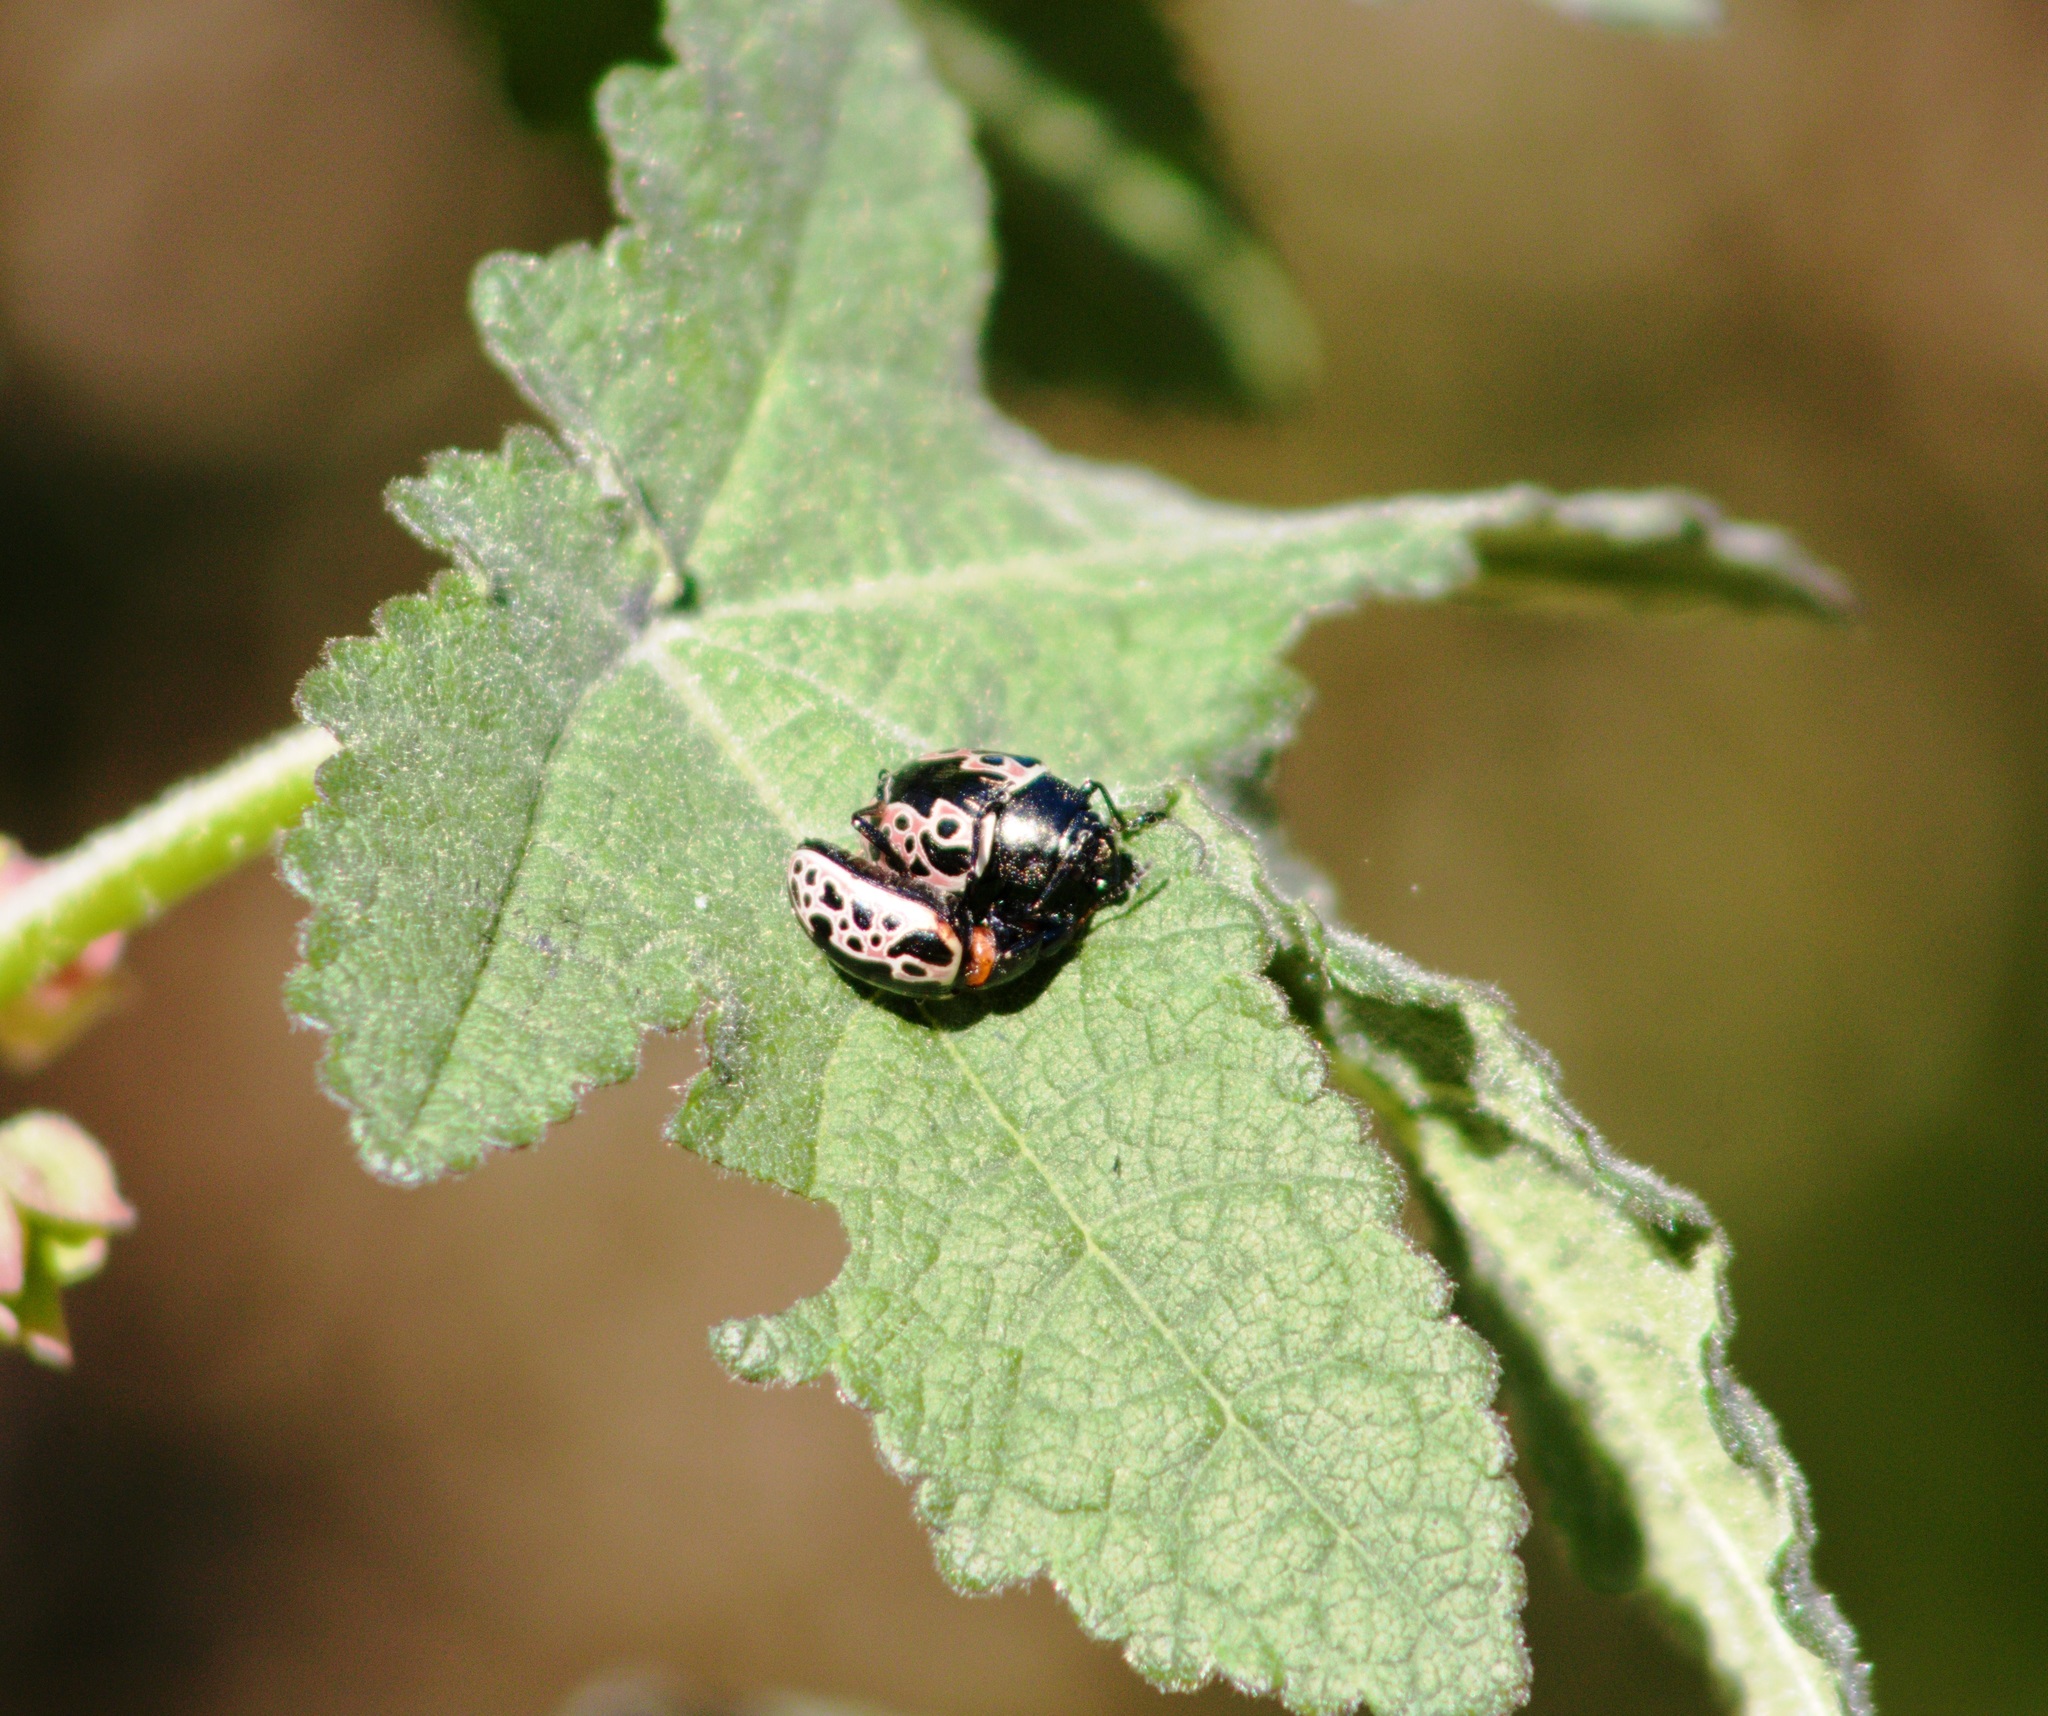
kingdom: Animalia
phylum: Arthropoda
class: Insecta
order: Coleoptera
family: Chrysomelidae
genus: Calligrapha
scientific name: Calligrapha diversa
